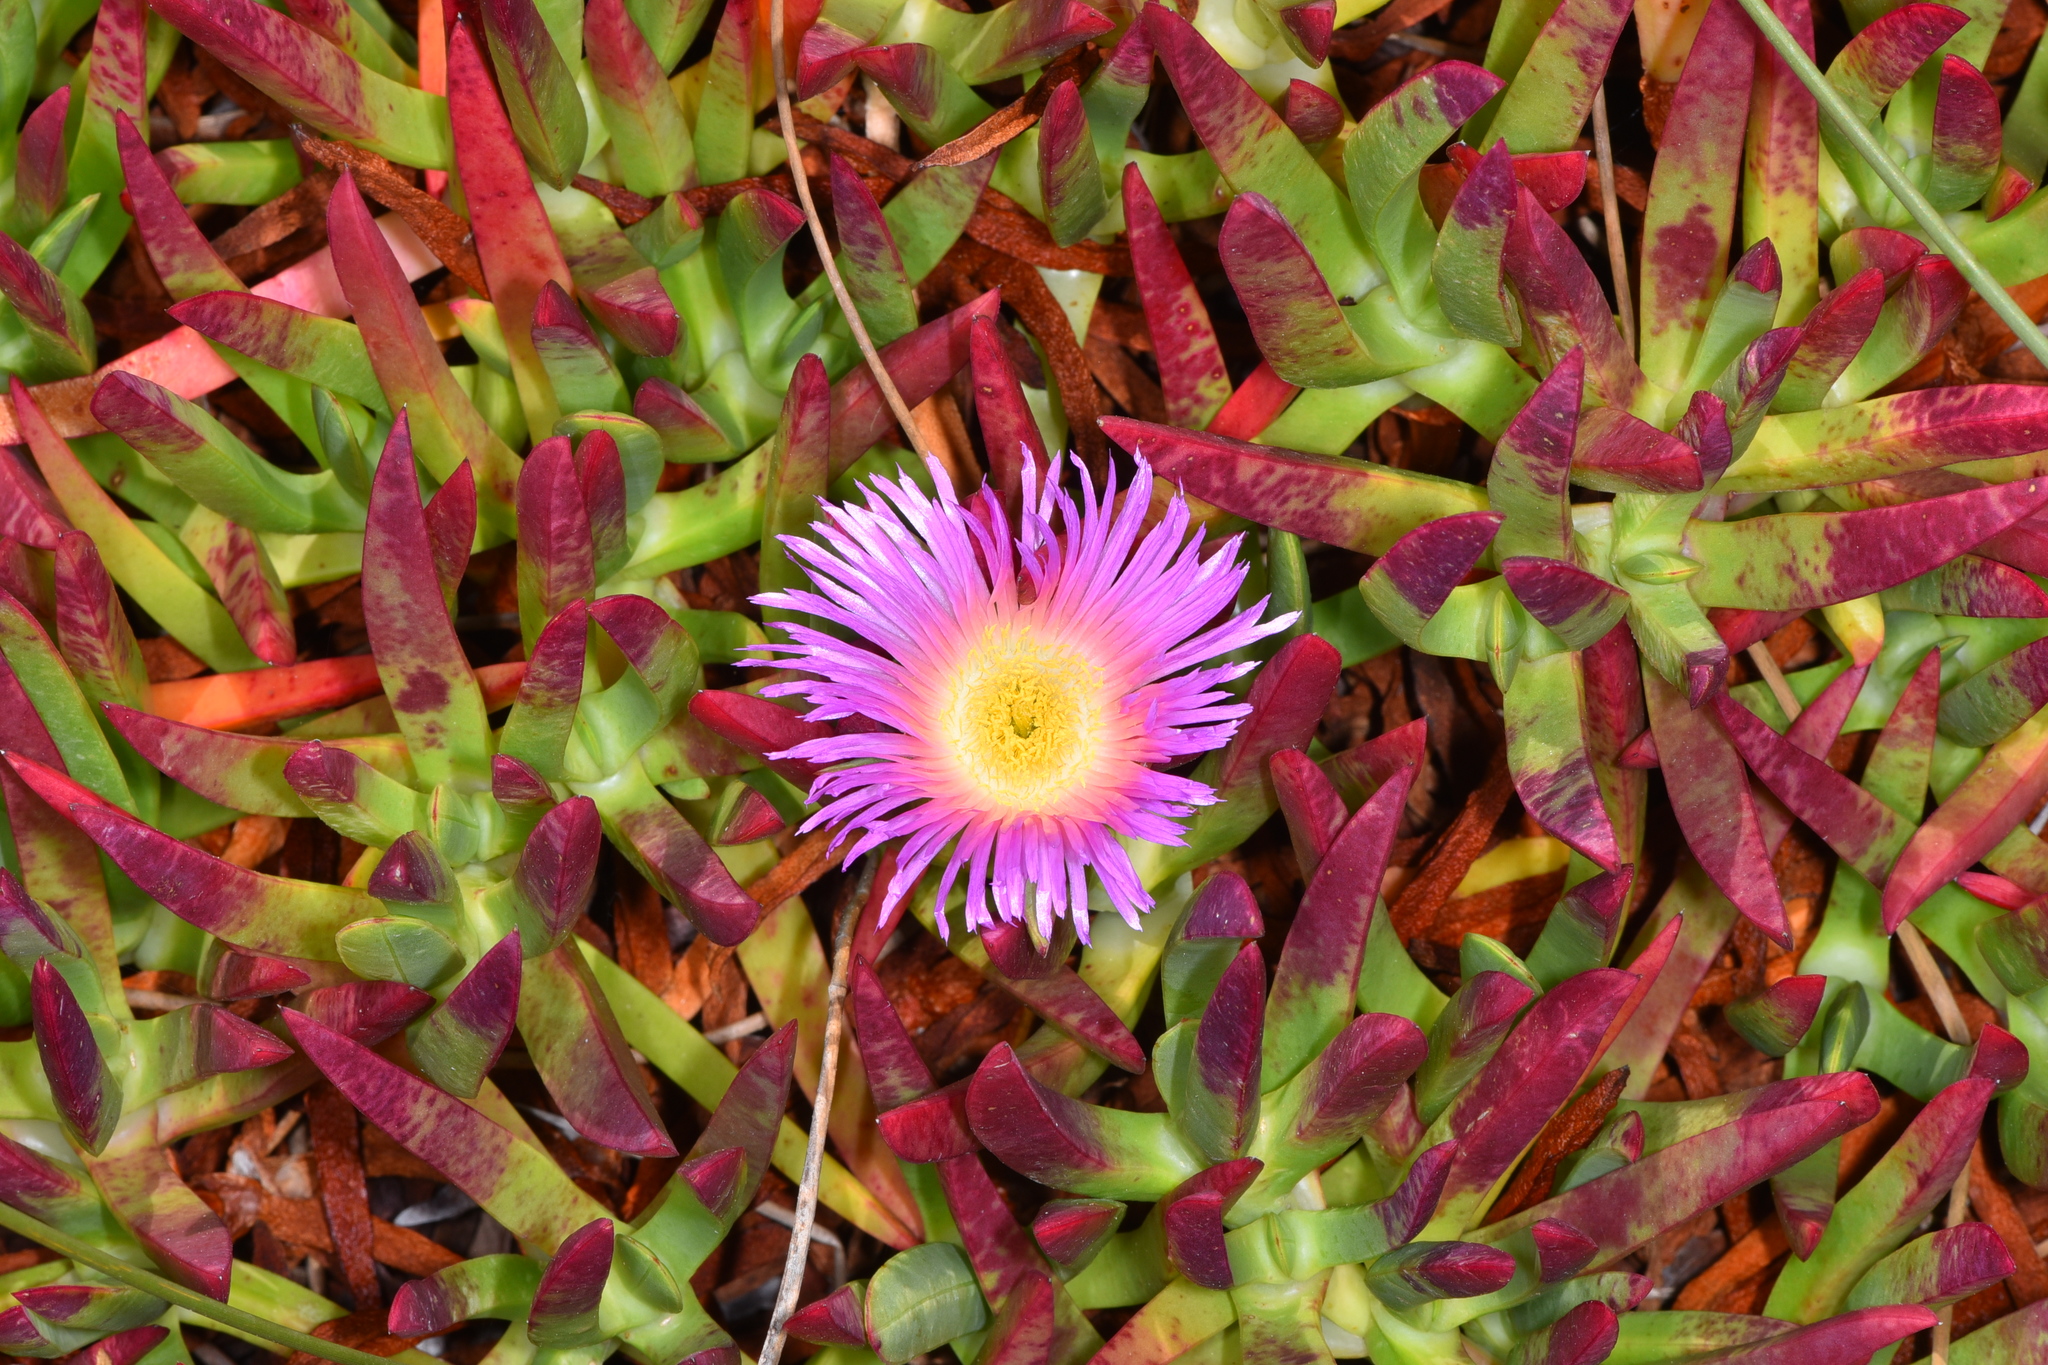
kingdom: Plantae
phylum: Tracheophyta
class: Magnoliopsida
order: Caryophyllales
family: Aizoaceae
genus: Carpobrotus
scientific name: Carpobrotus chilensis
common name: Sea fig
